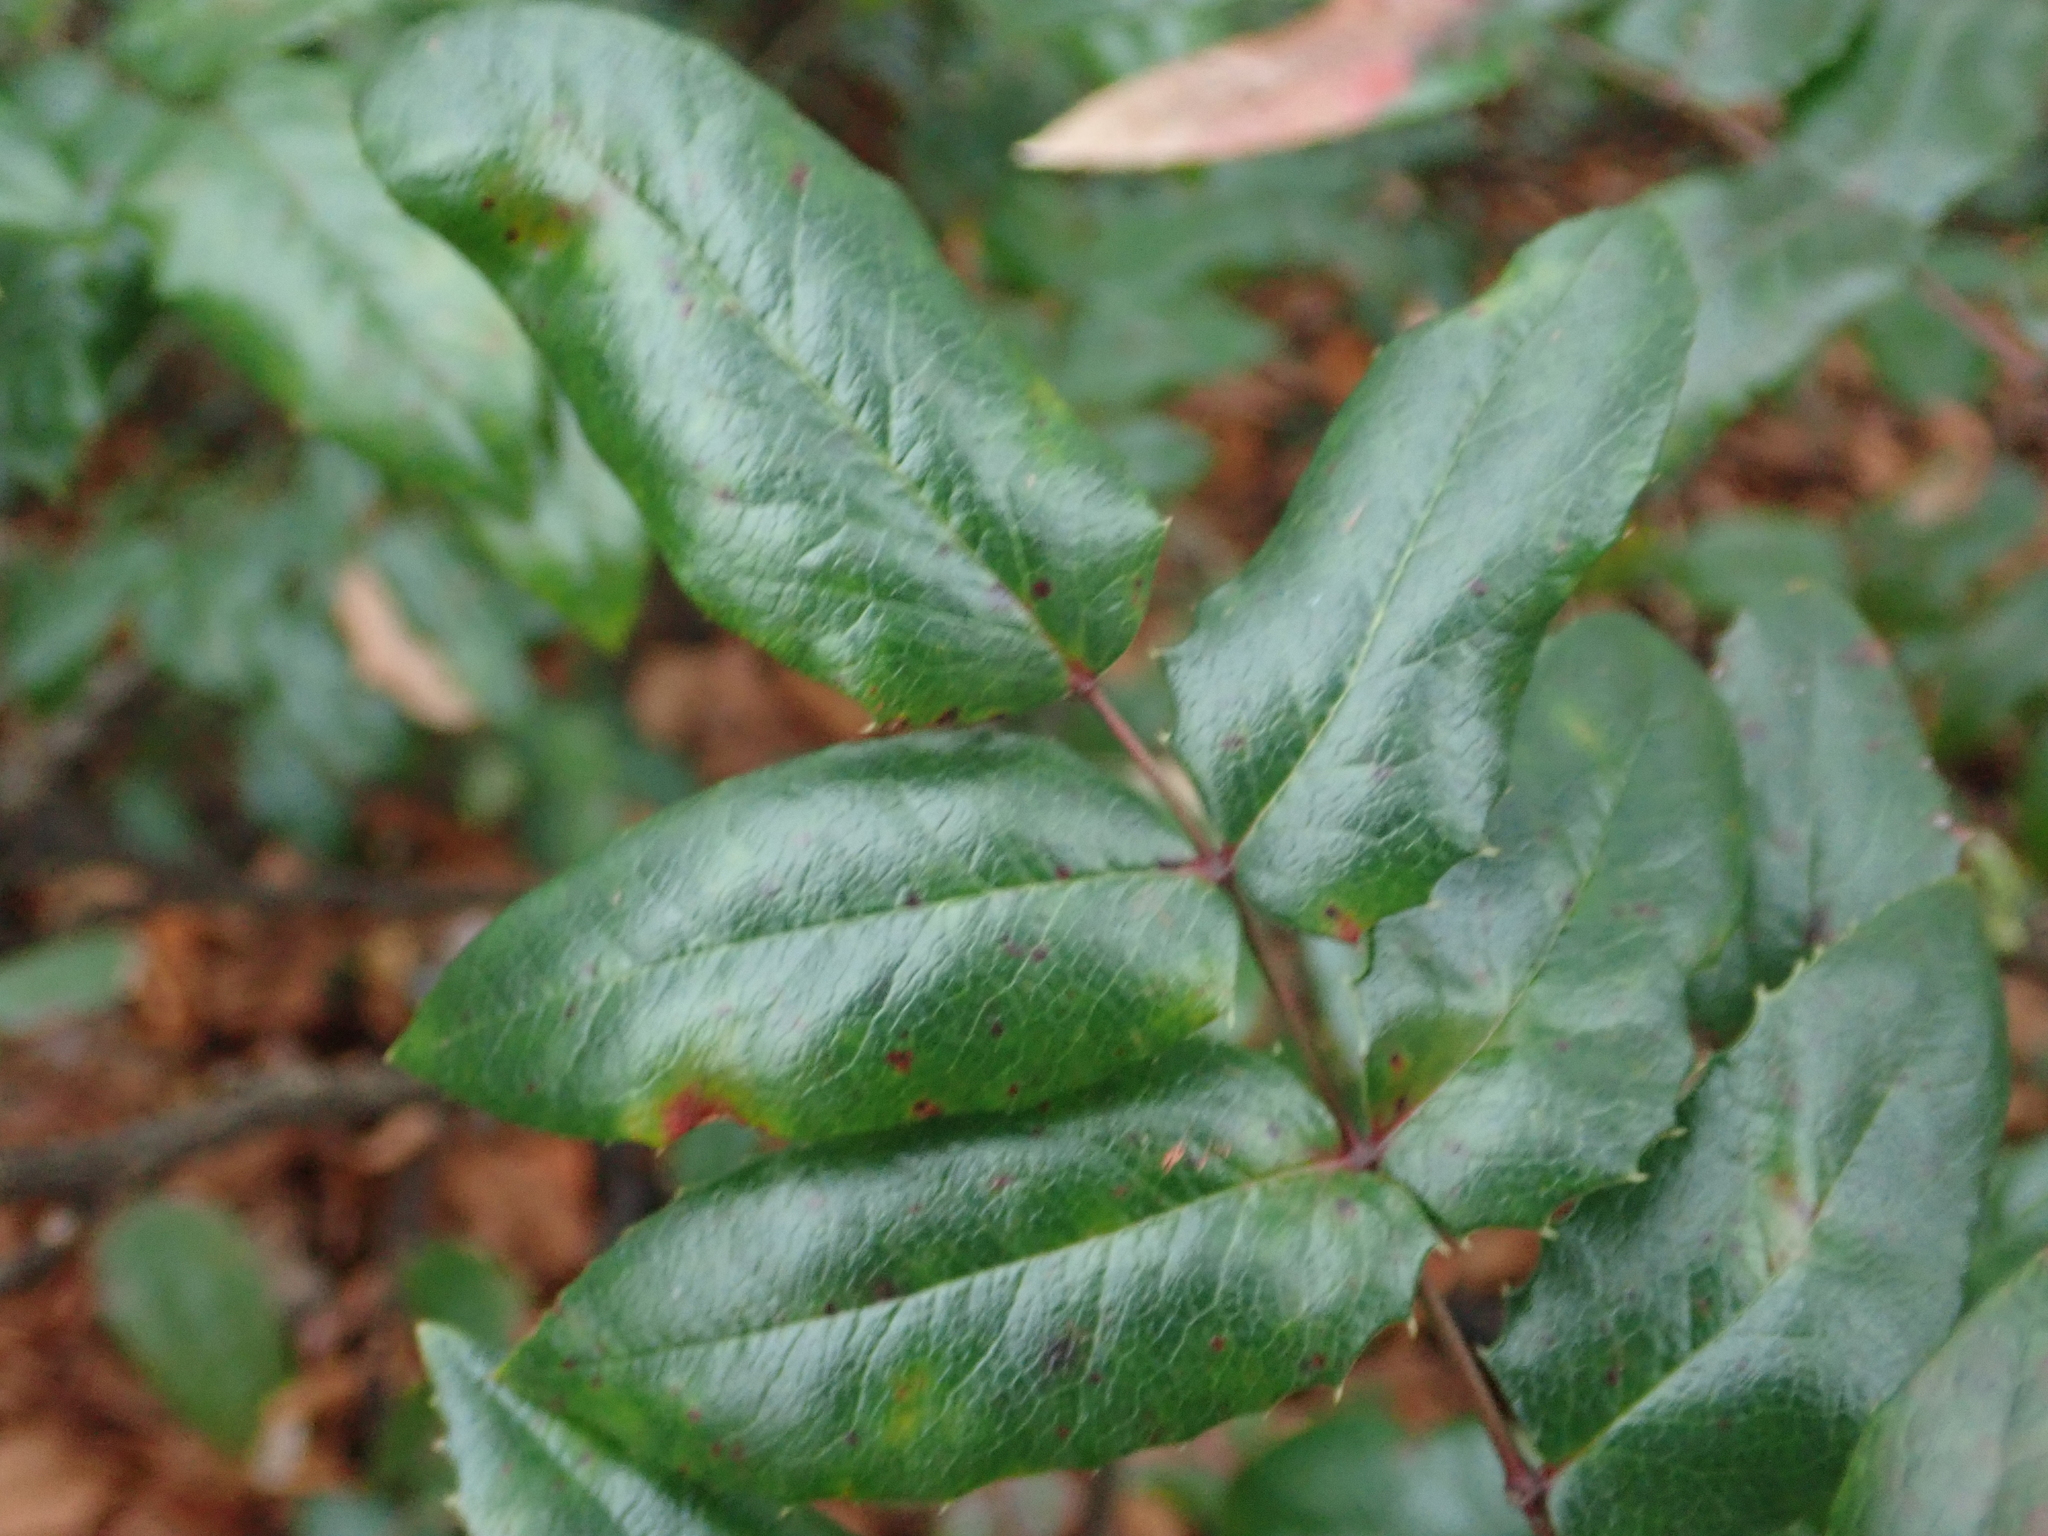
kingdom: Plantae
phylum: Tracheophyta
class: Magnoliopsida
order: Ranunculales
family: Berberidaceae
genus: Mahonia
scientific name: Mahonia aquifolium
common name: Oregon-grape
